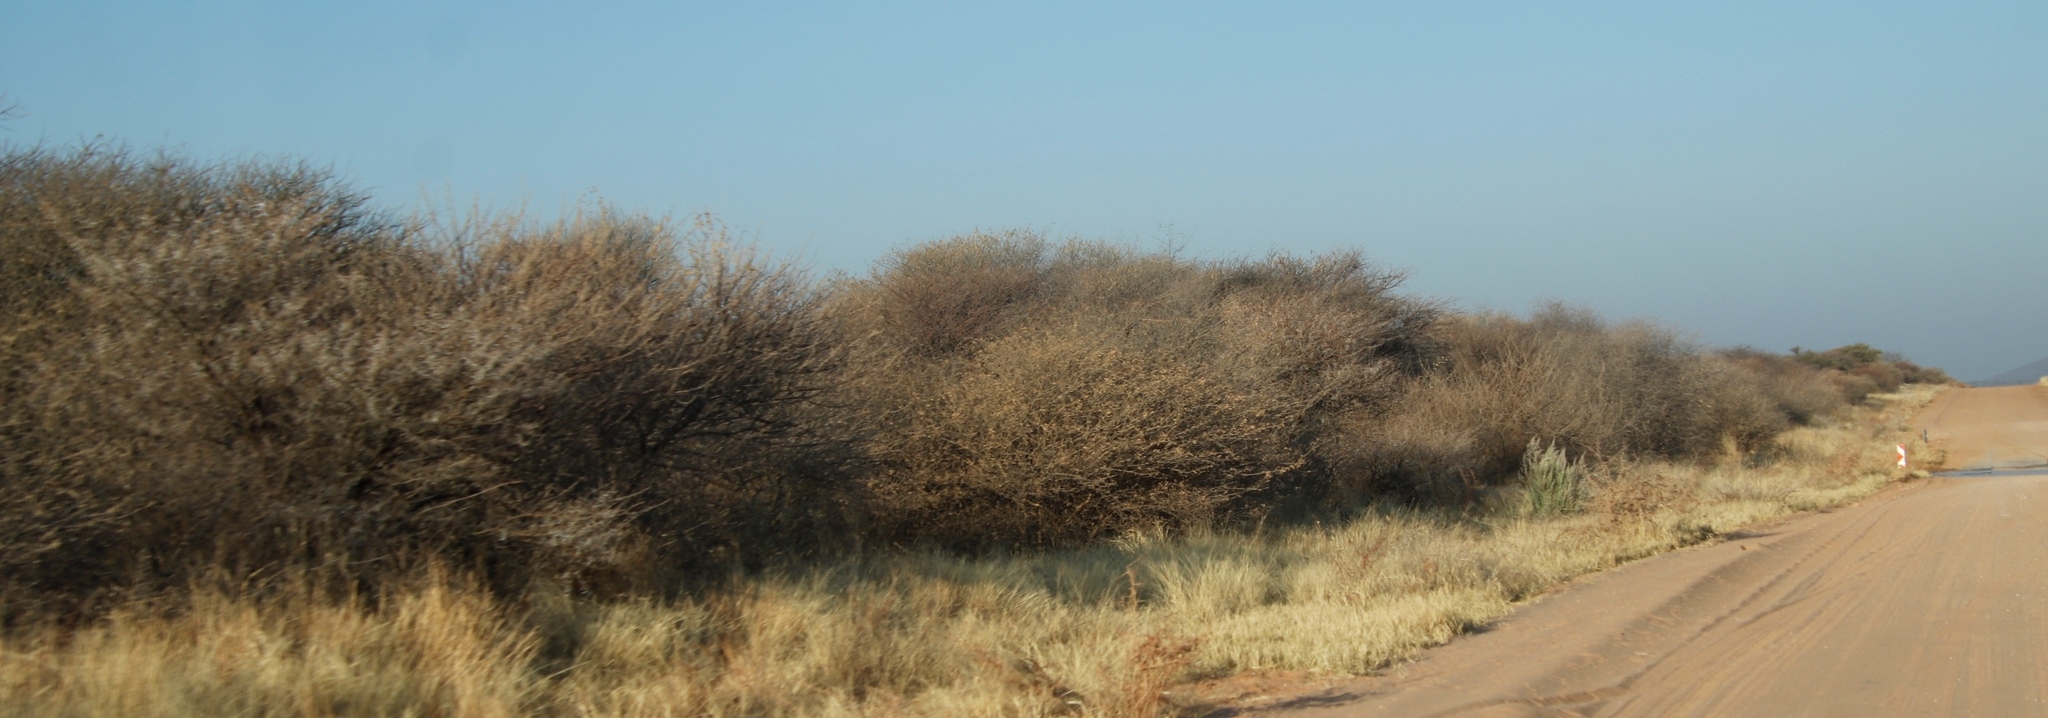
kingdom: Plantae
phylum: Tracheophyta
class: Magnoliopsida
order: Fabales
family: Fabaceae
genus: Senegalia
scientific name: Senegalia mellifera
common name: Hookthorn
